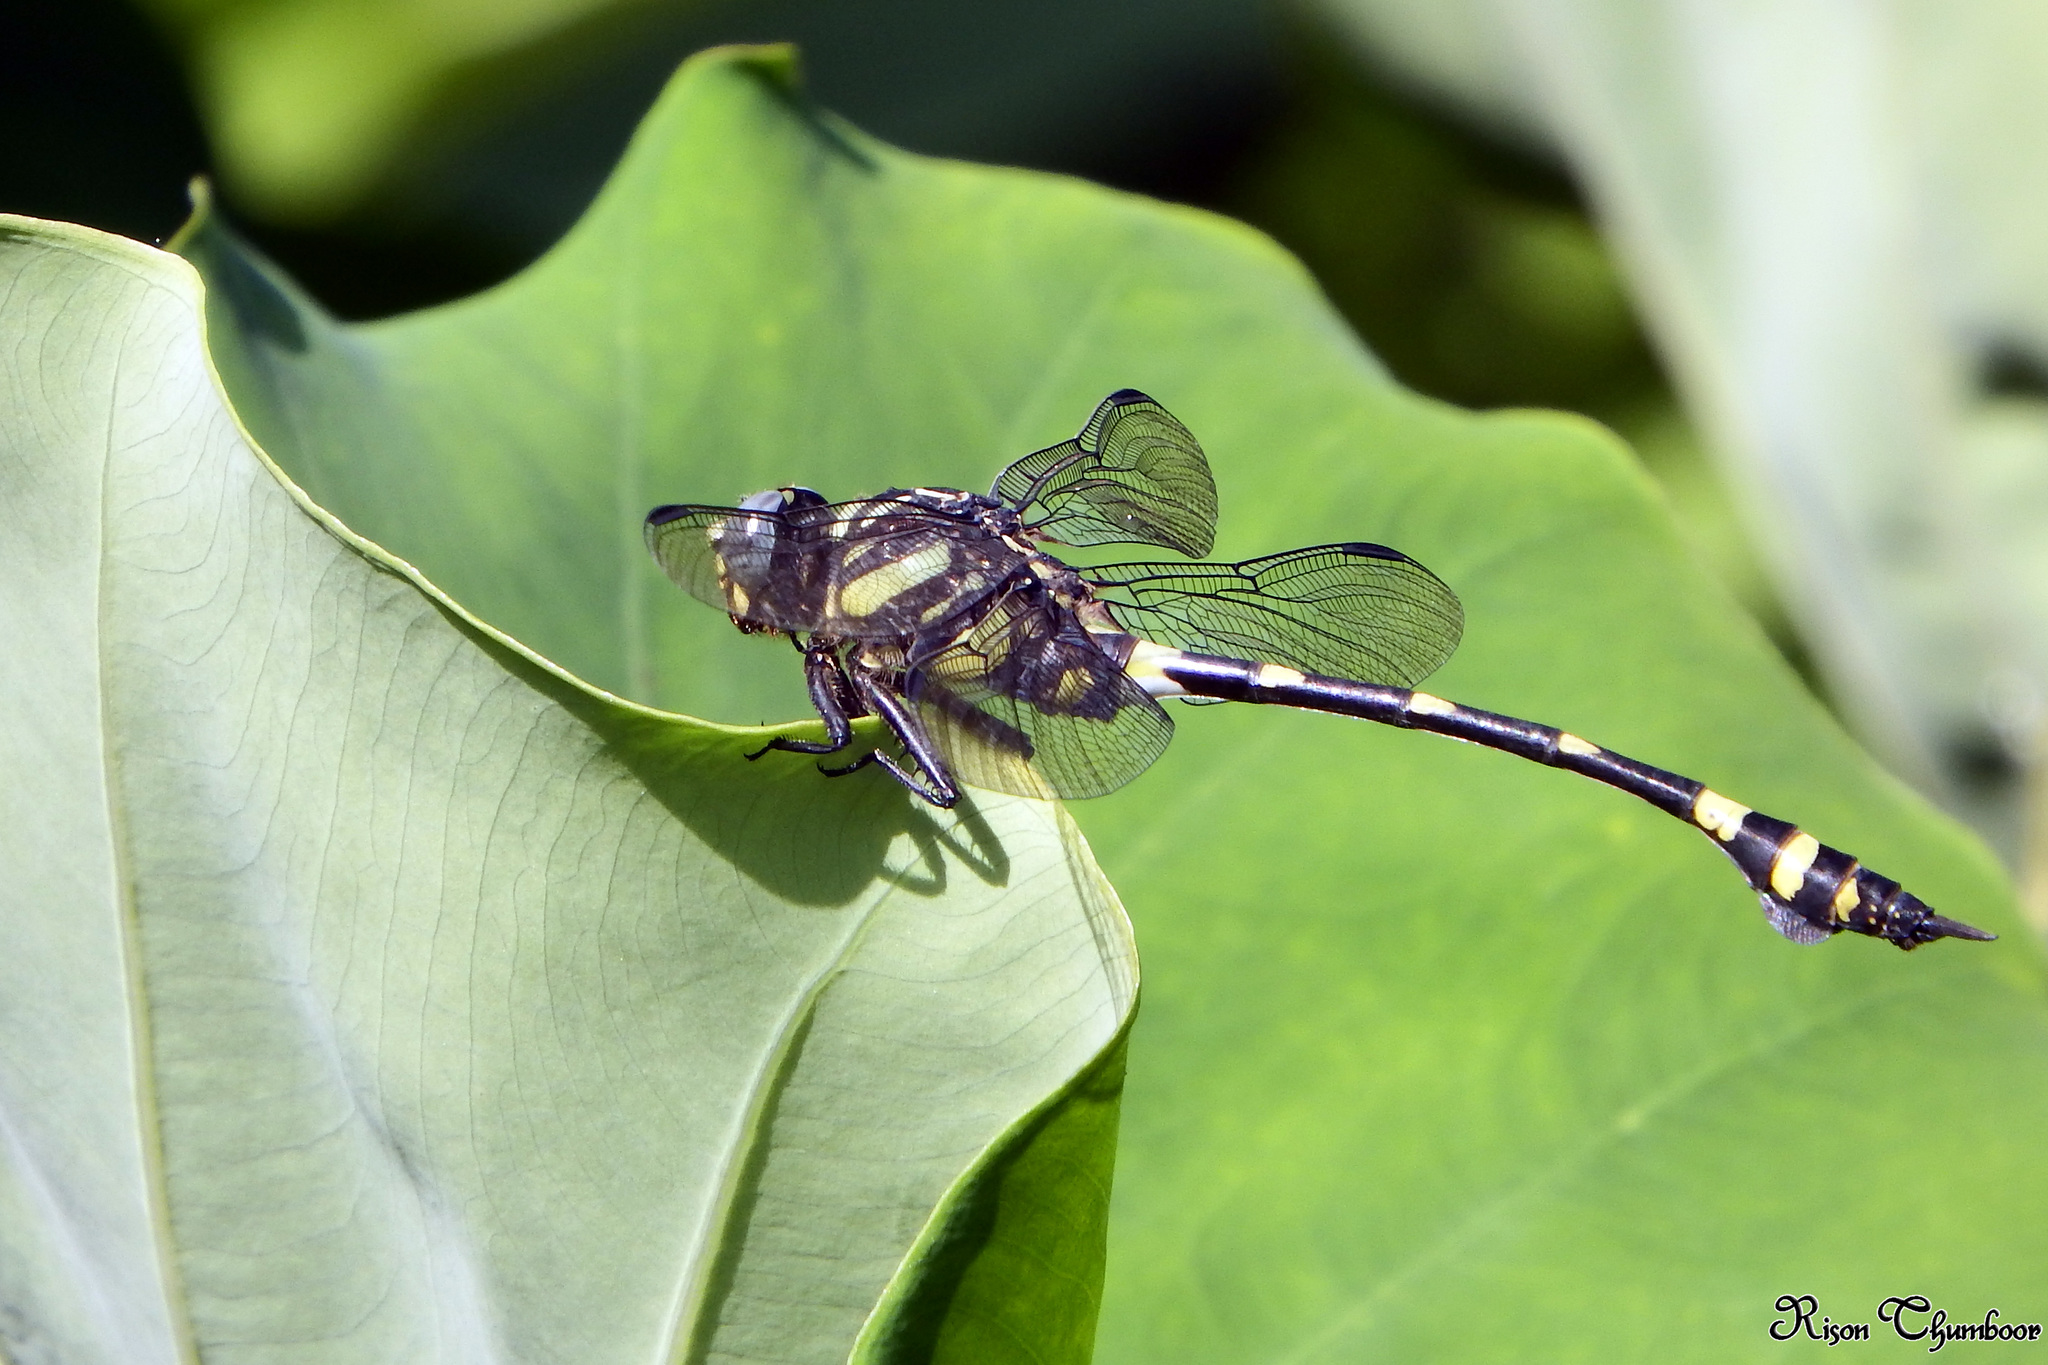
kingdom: Animalia
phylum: Arthropoda
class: Insecta
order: Odonata
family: Gomphidae
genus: Ictinogomphus
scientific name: Ictinogomphus rapax
